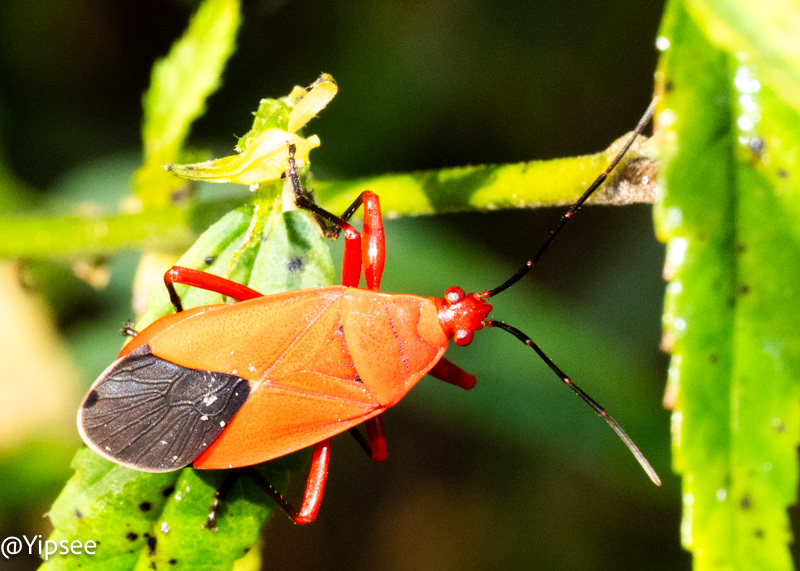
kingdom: Animalia
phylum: Arthropoda
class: Insecta
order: Hemiptera
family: Pyrrhocoridae
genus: Antilochus
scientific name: Antilochus coquebertii
